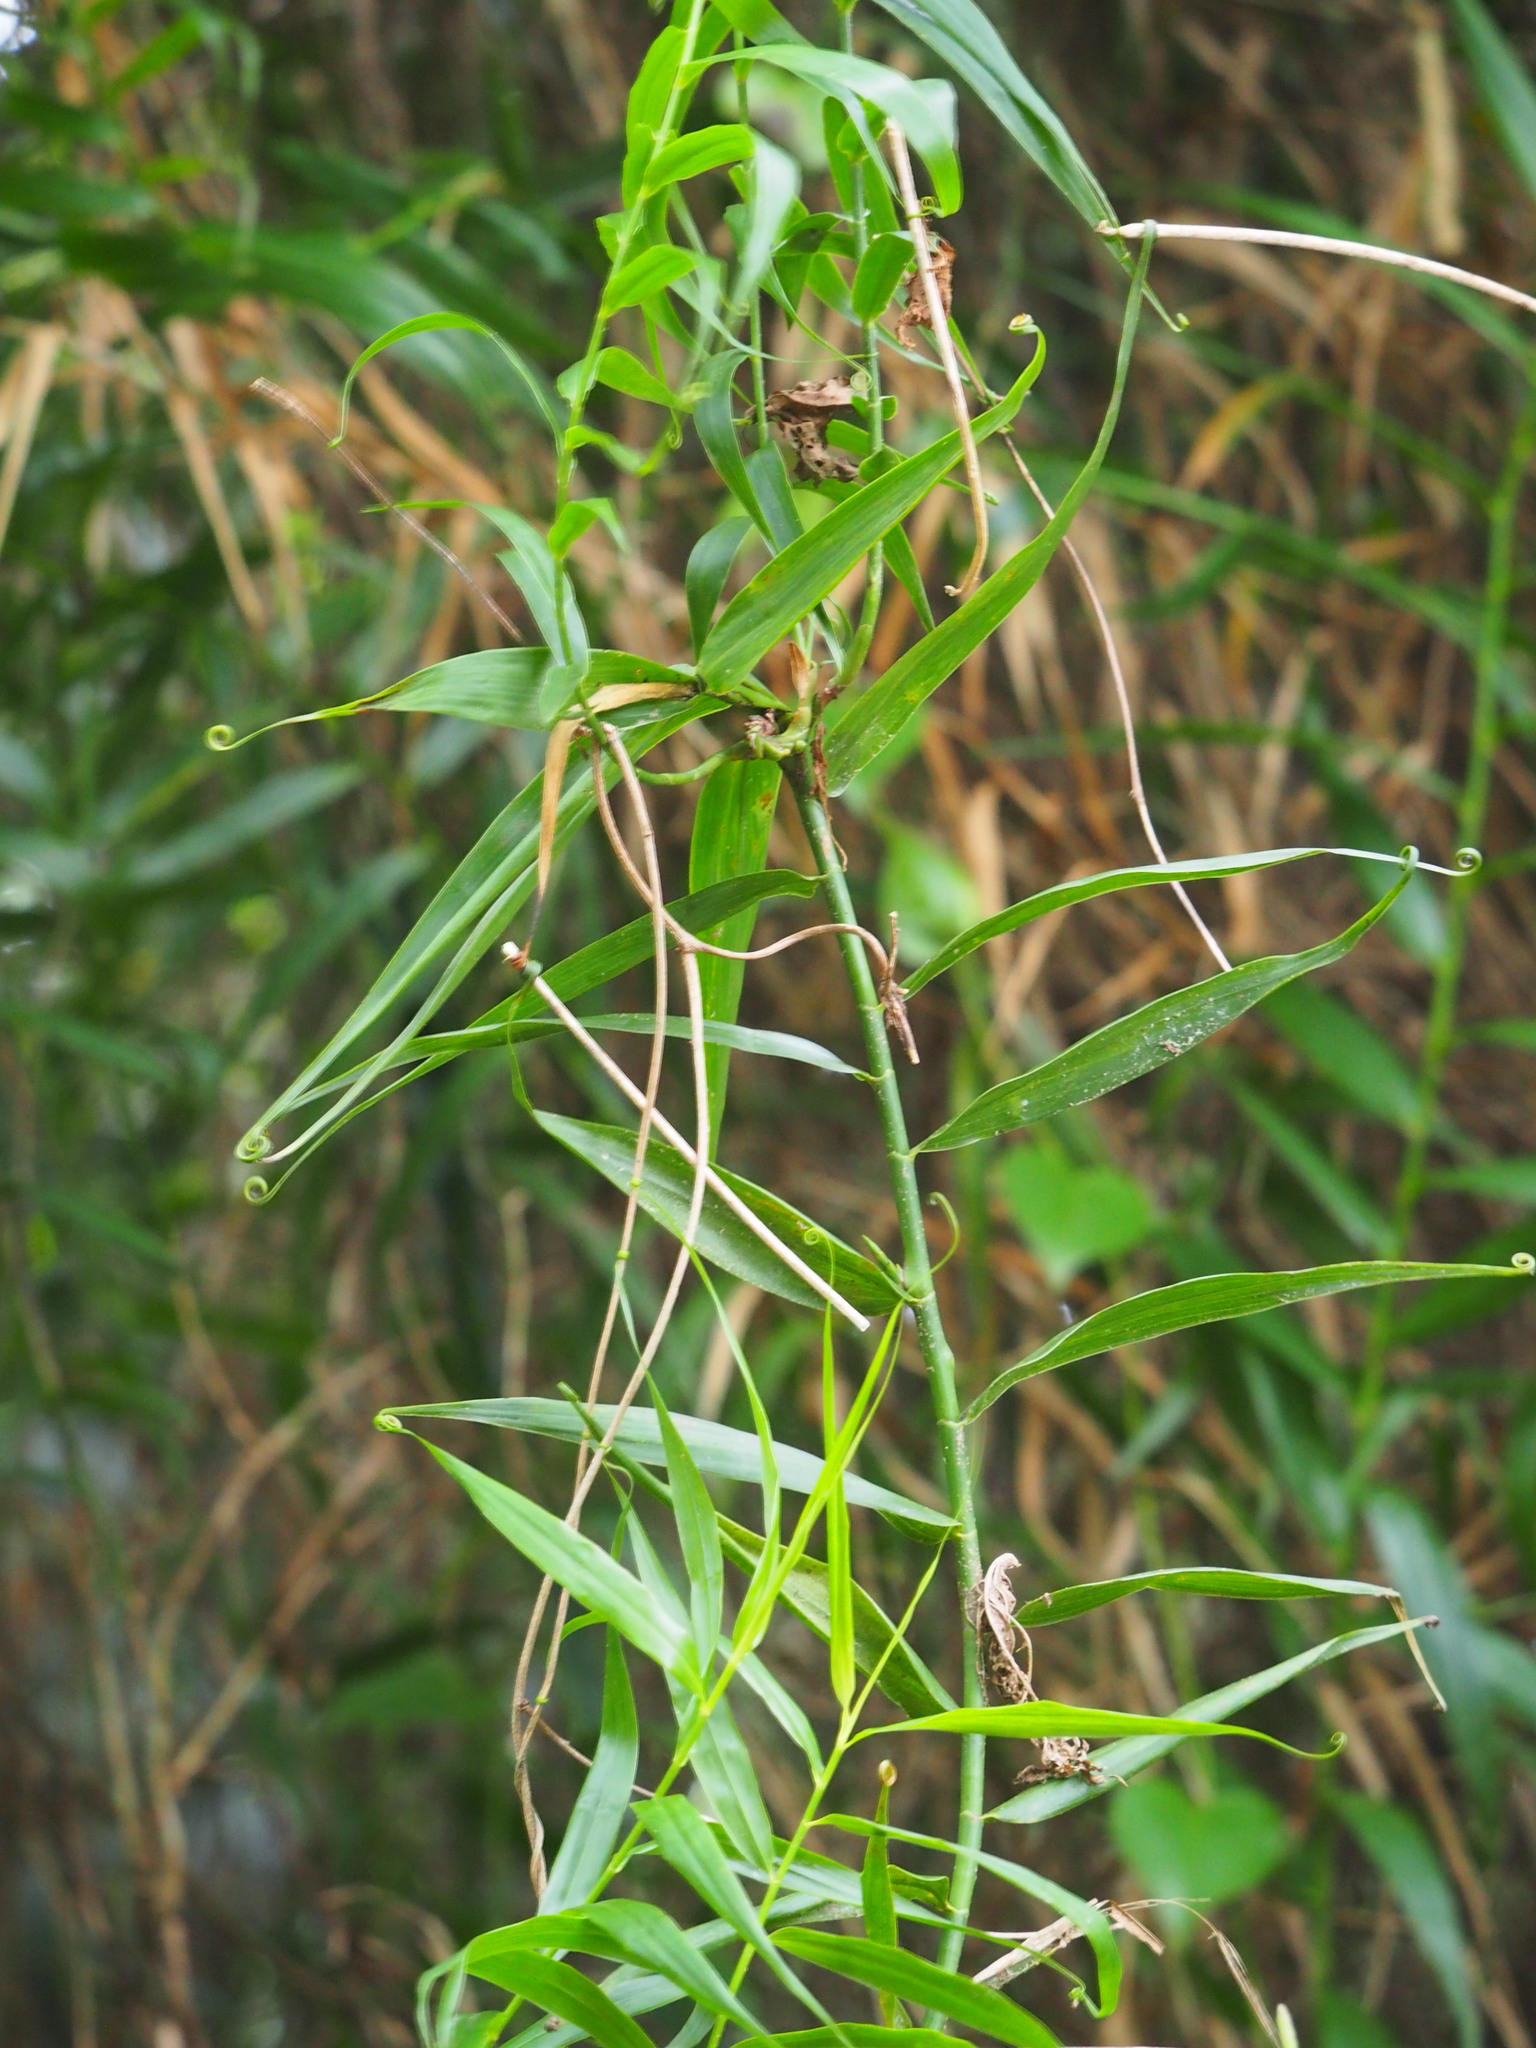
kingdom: Plantae
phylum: Tracheophyta
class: Liliopsida
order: Poales
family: Flagellariaceae
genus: Flagellaria
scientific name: Flagellaria indica
